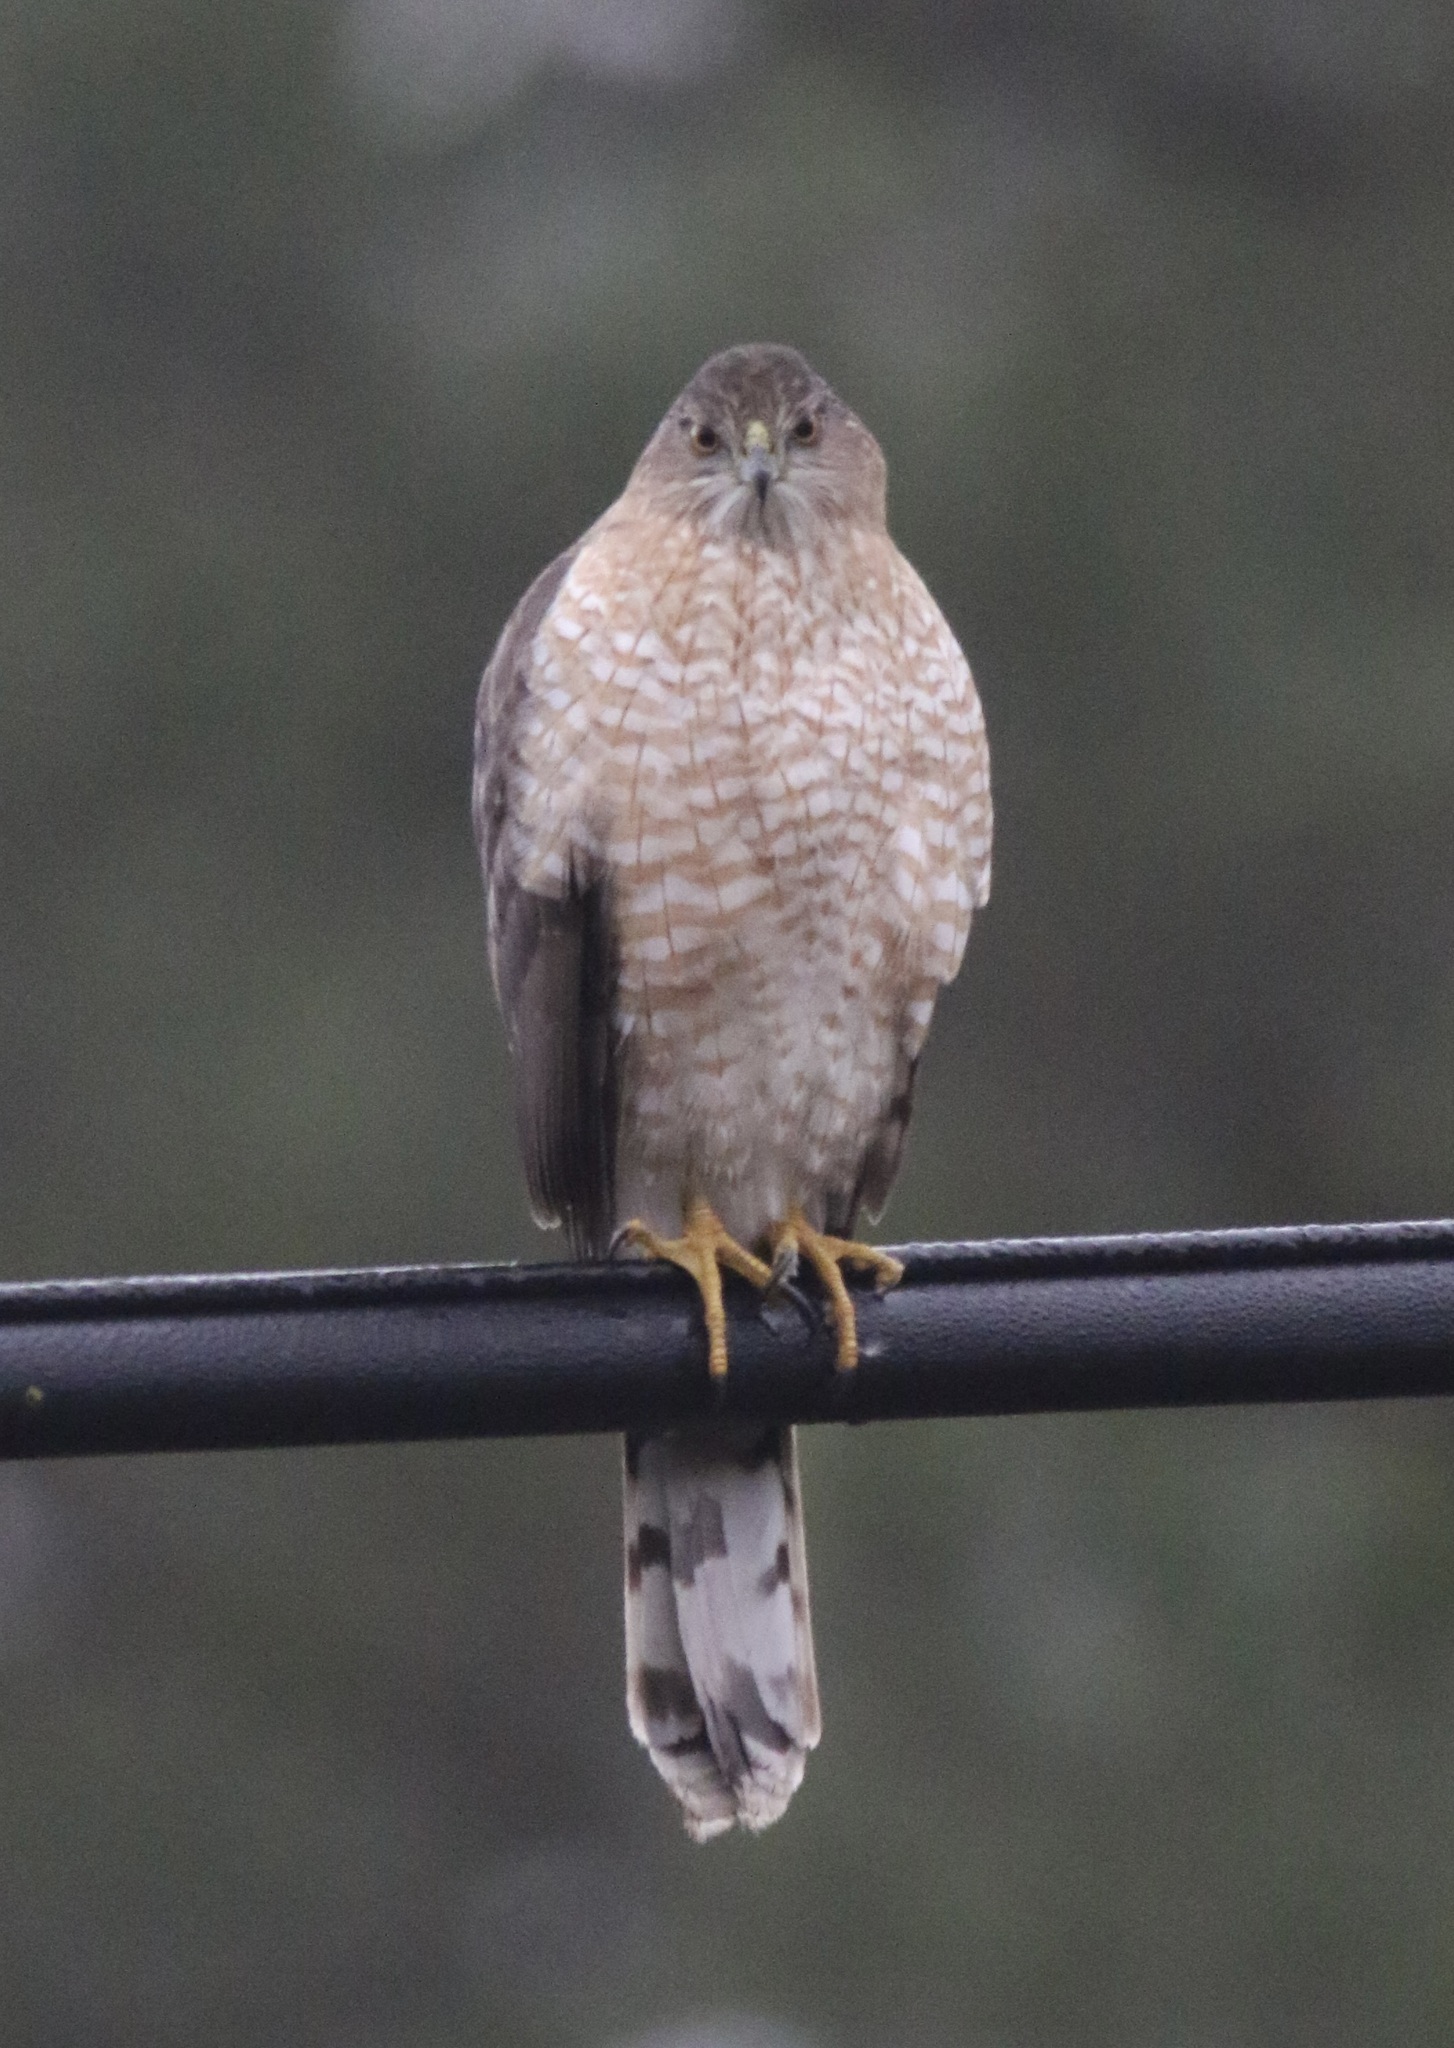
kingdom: Animalia
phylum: Chordata
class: Aves
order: Accipitriformes
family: Accipitridae
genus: Accipiter
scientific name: Accipiter cooperii
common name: Cooper's hawk
